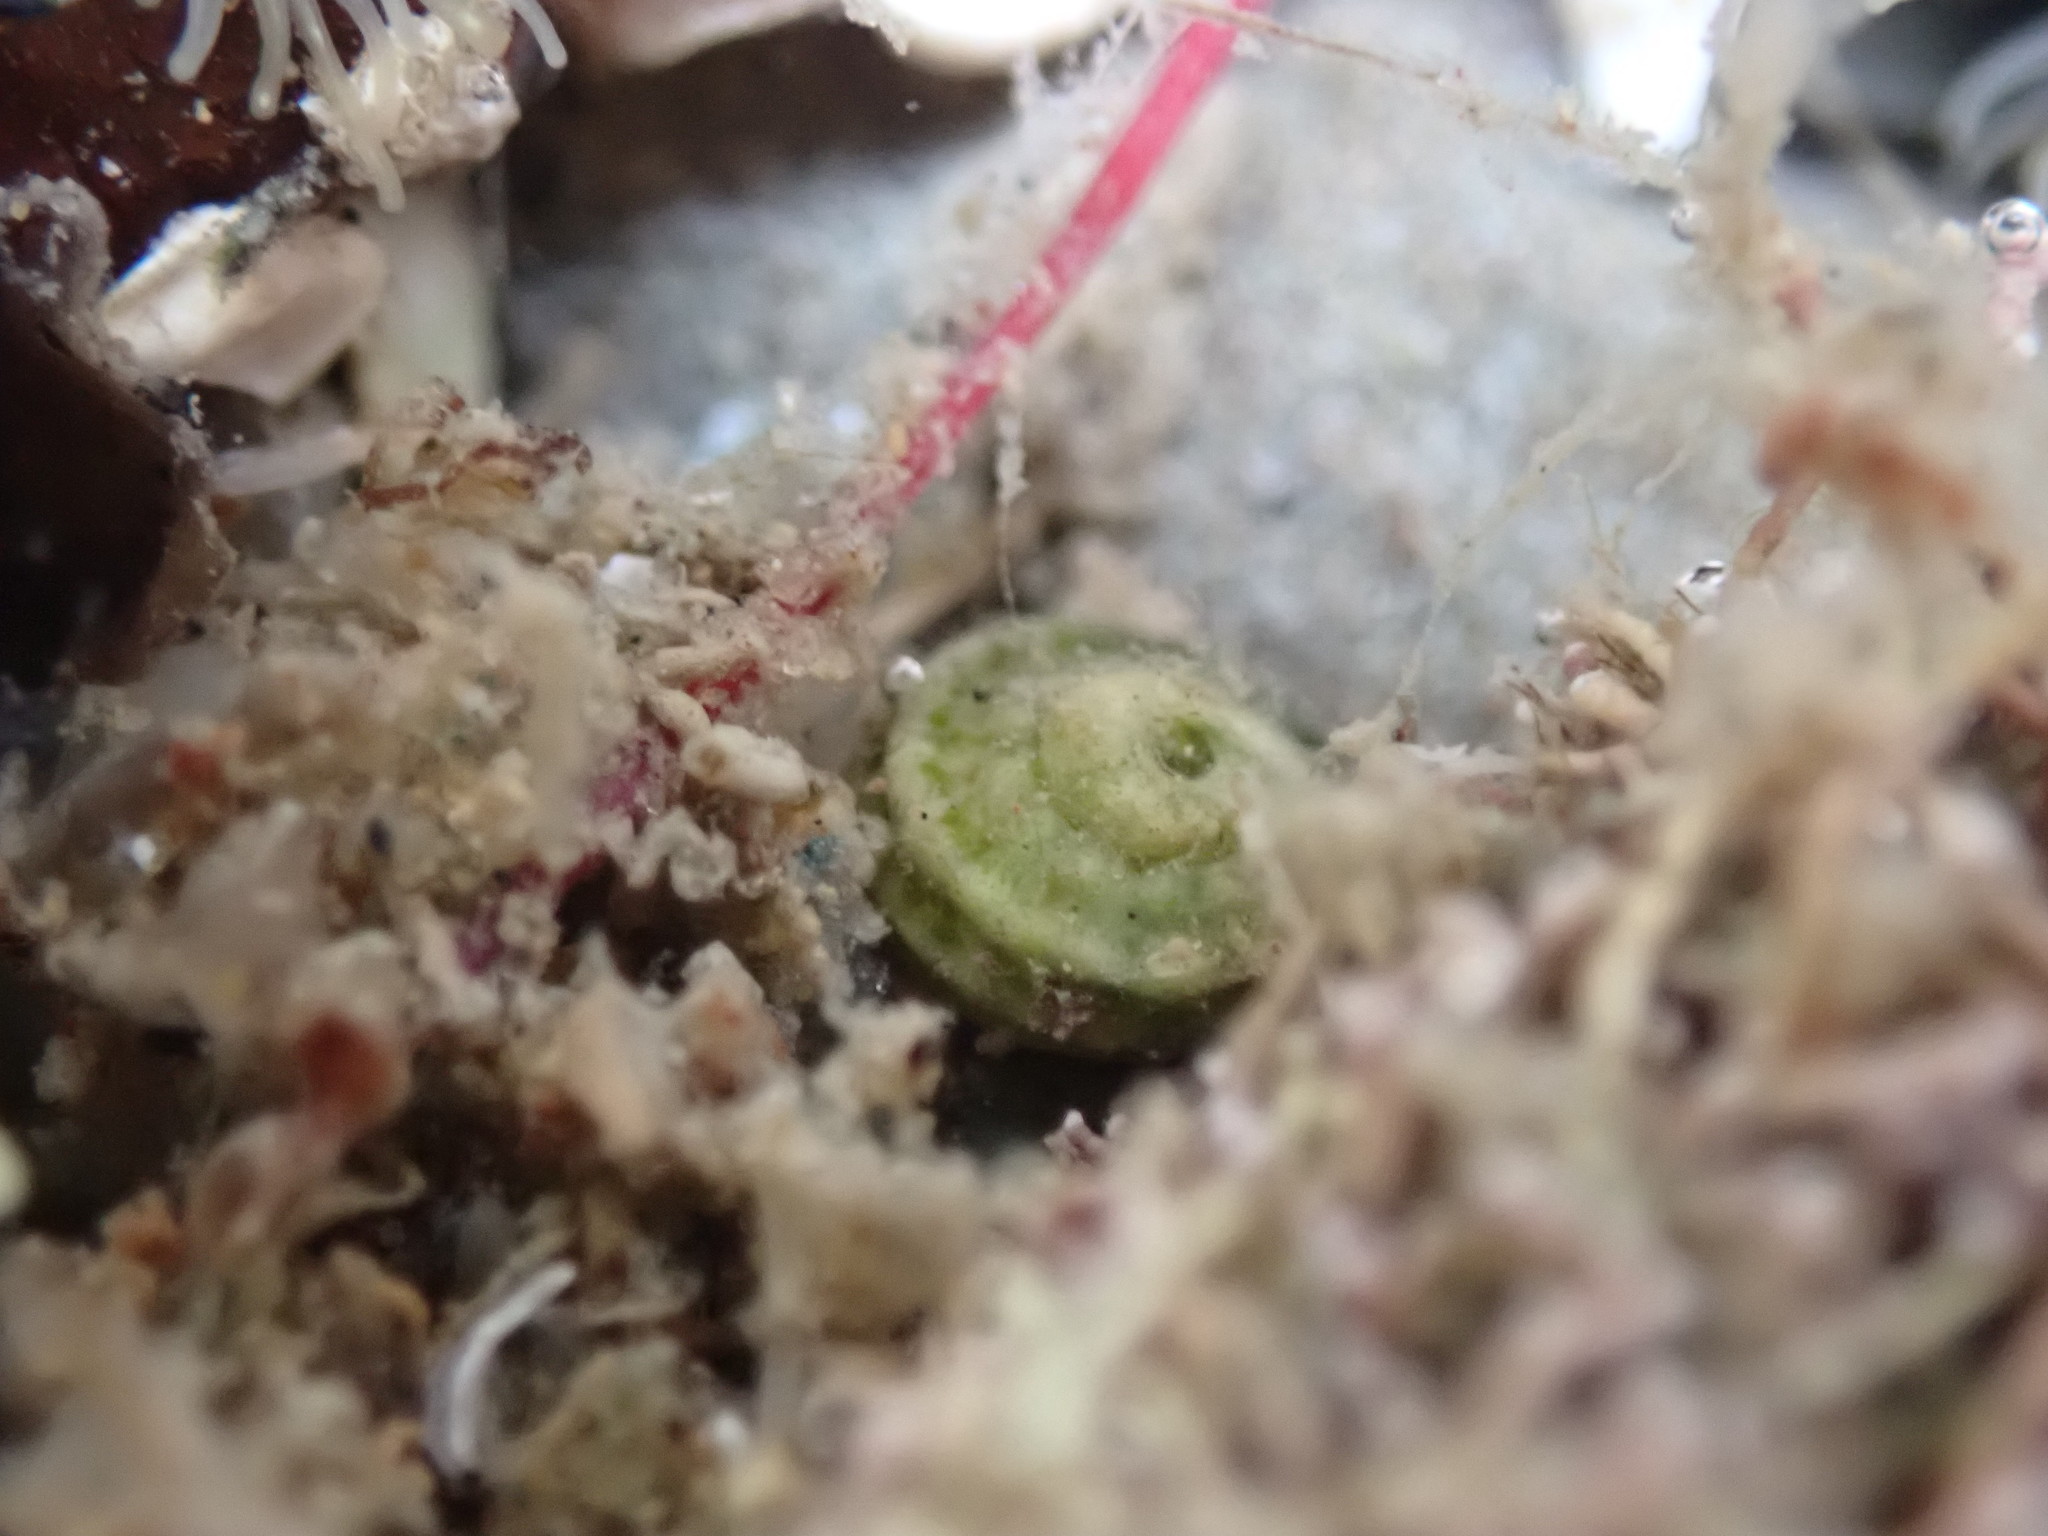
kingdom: Animalia
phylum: Mollusca
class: Gastropoda
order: Trochida
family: Turbinidae
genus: Lunella
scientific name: Lunella smaragda
